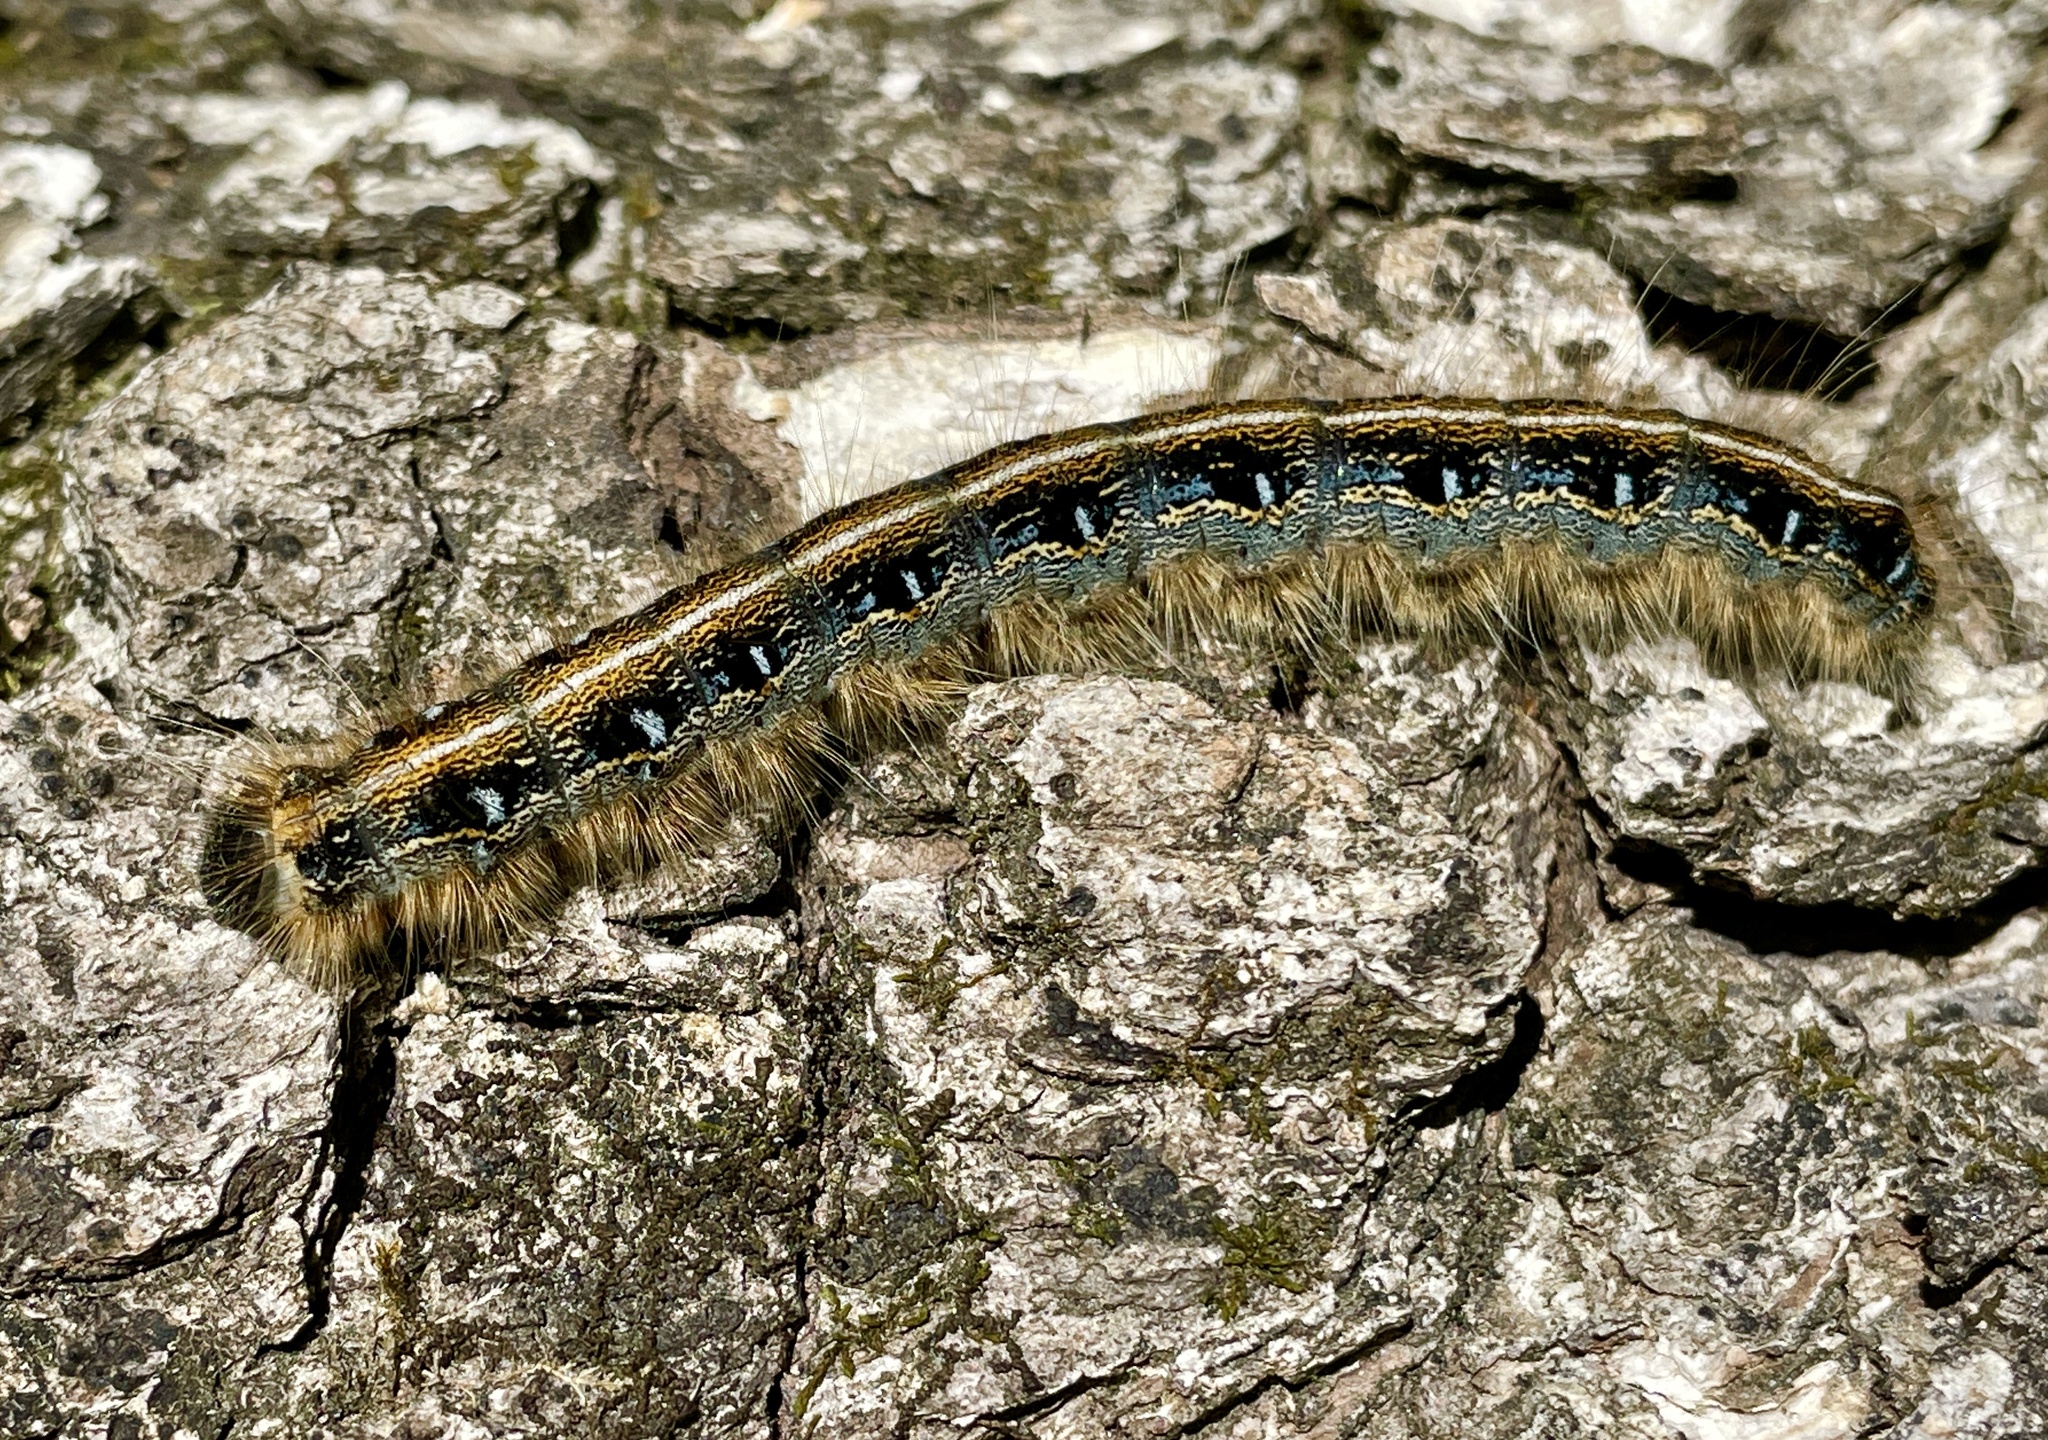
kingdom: Animalia
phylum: Arthropoda
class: Insecta
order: Lepidoptera
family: Lasiocampidae
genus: Malacosoma
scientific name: Malacosoma americana
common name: Eastern tent caterpillar moth
